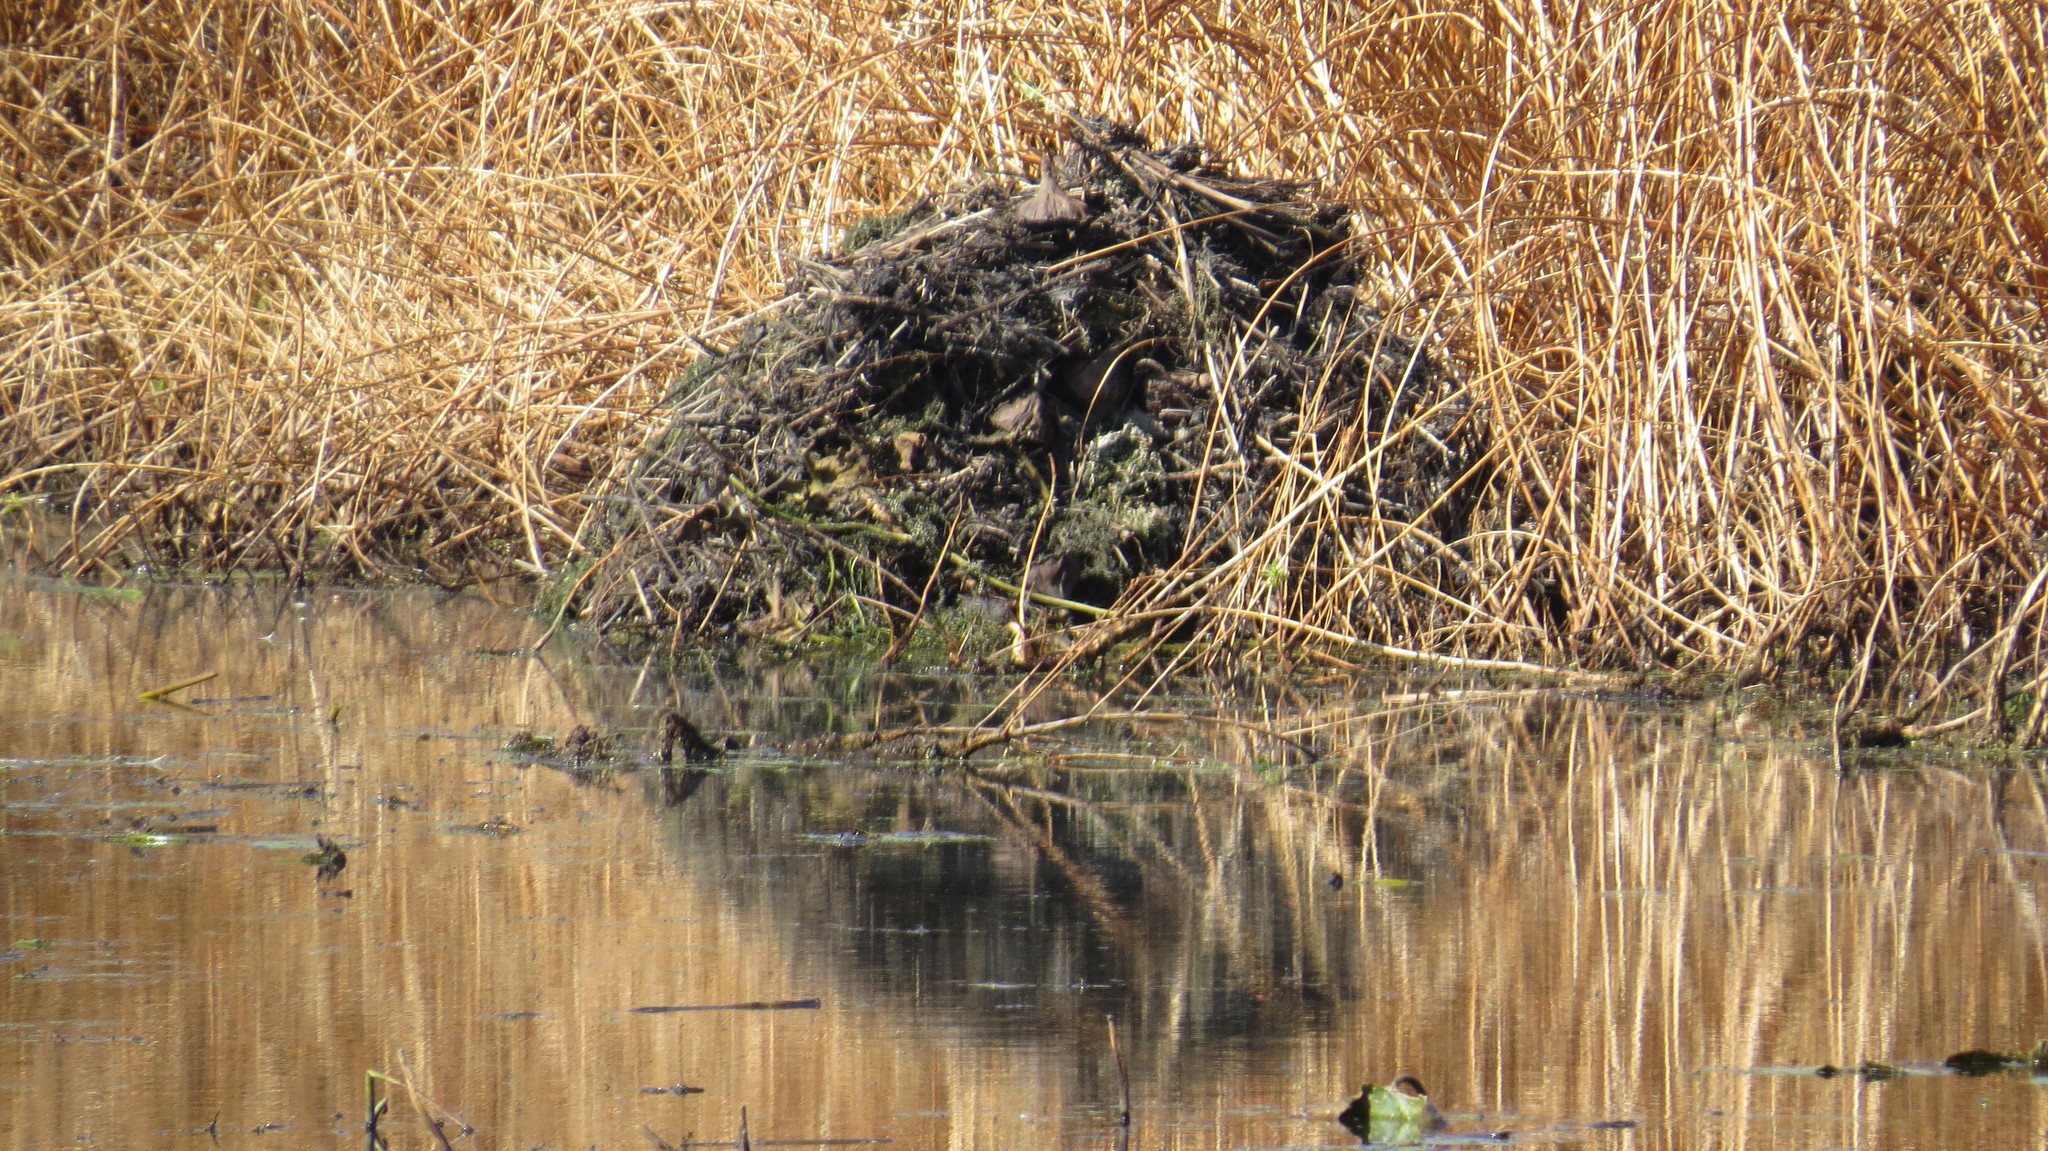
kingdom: Animalia
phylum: Chordata
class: Mammalia
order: Rodentia
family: Cricetidae
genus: Ondatra
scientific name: Ondatra zibethicus
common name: Muskrat
